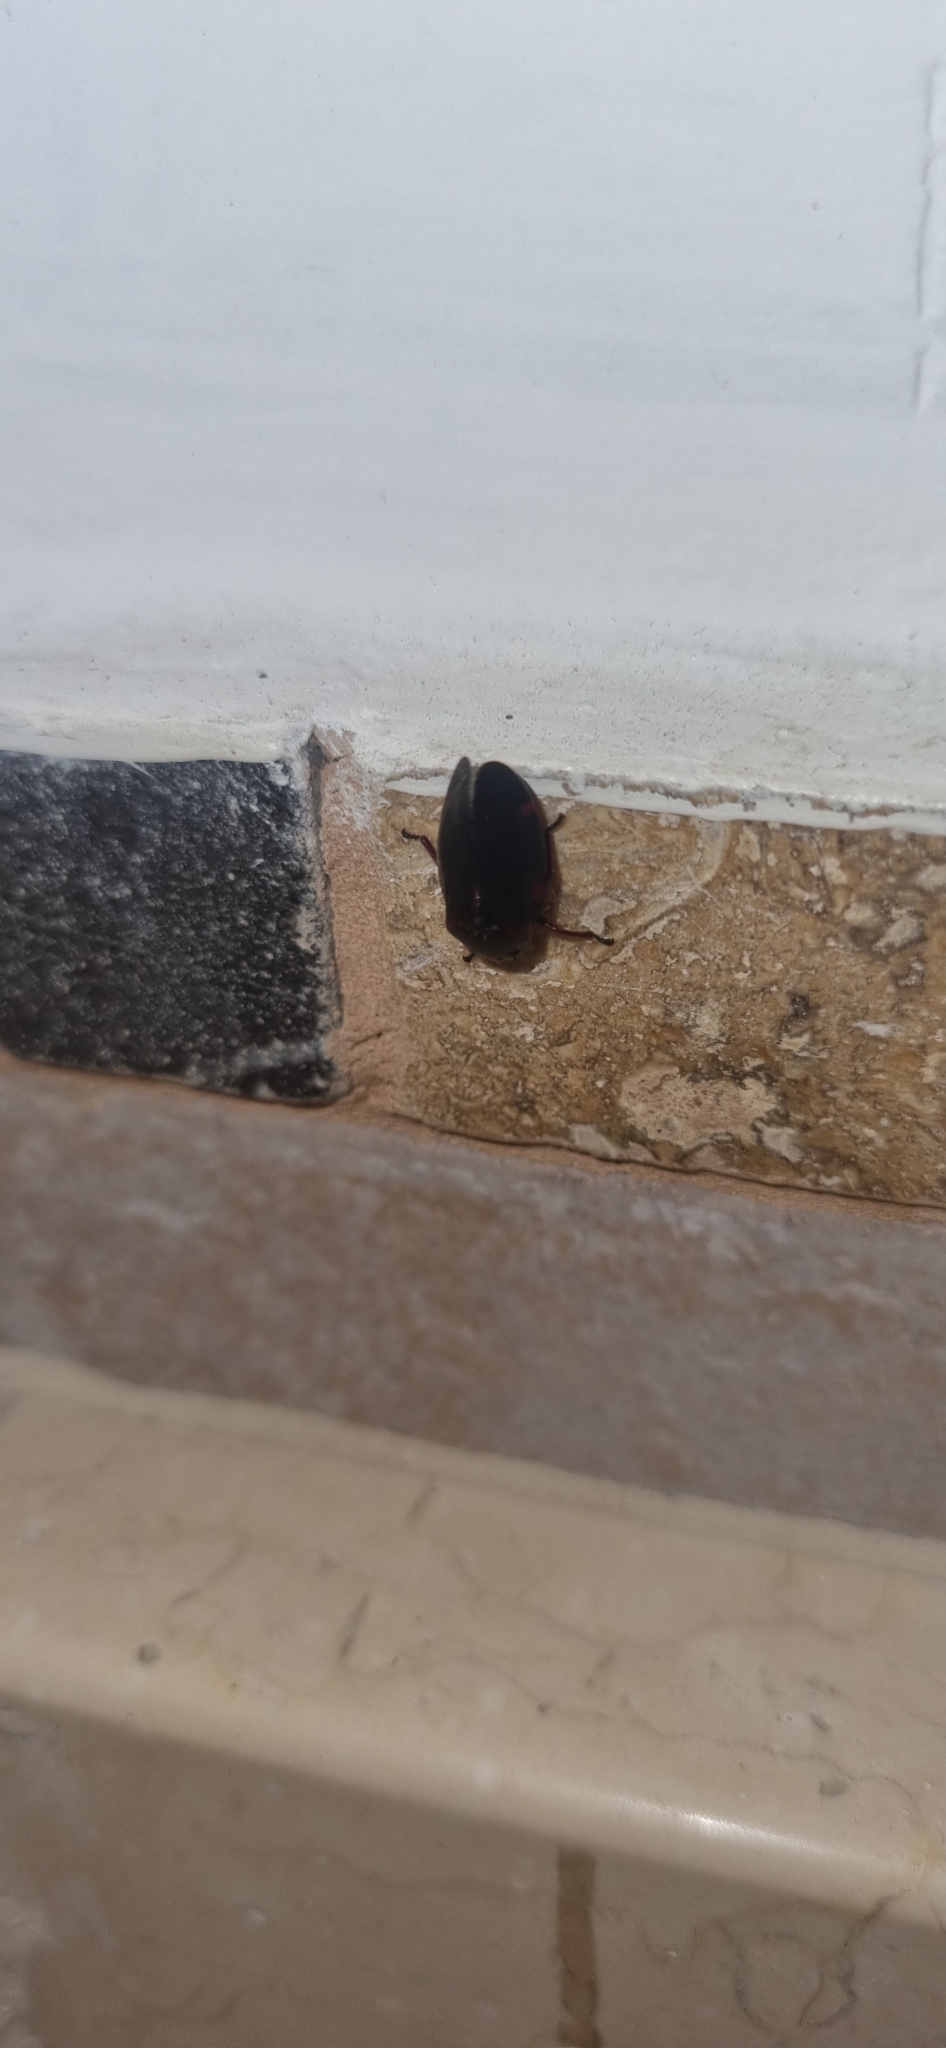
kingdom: Animalia
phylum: Arthropoda
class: Insecta
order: Hemiptera
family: Cercopidae
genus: Deois
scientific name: Deois knoblauchii
